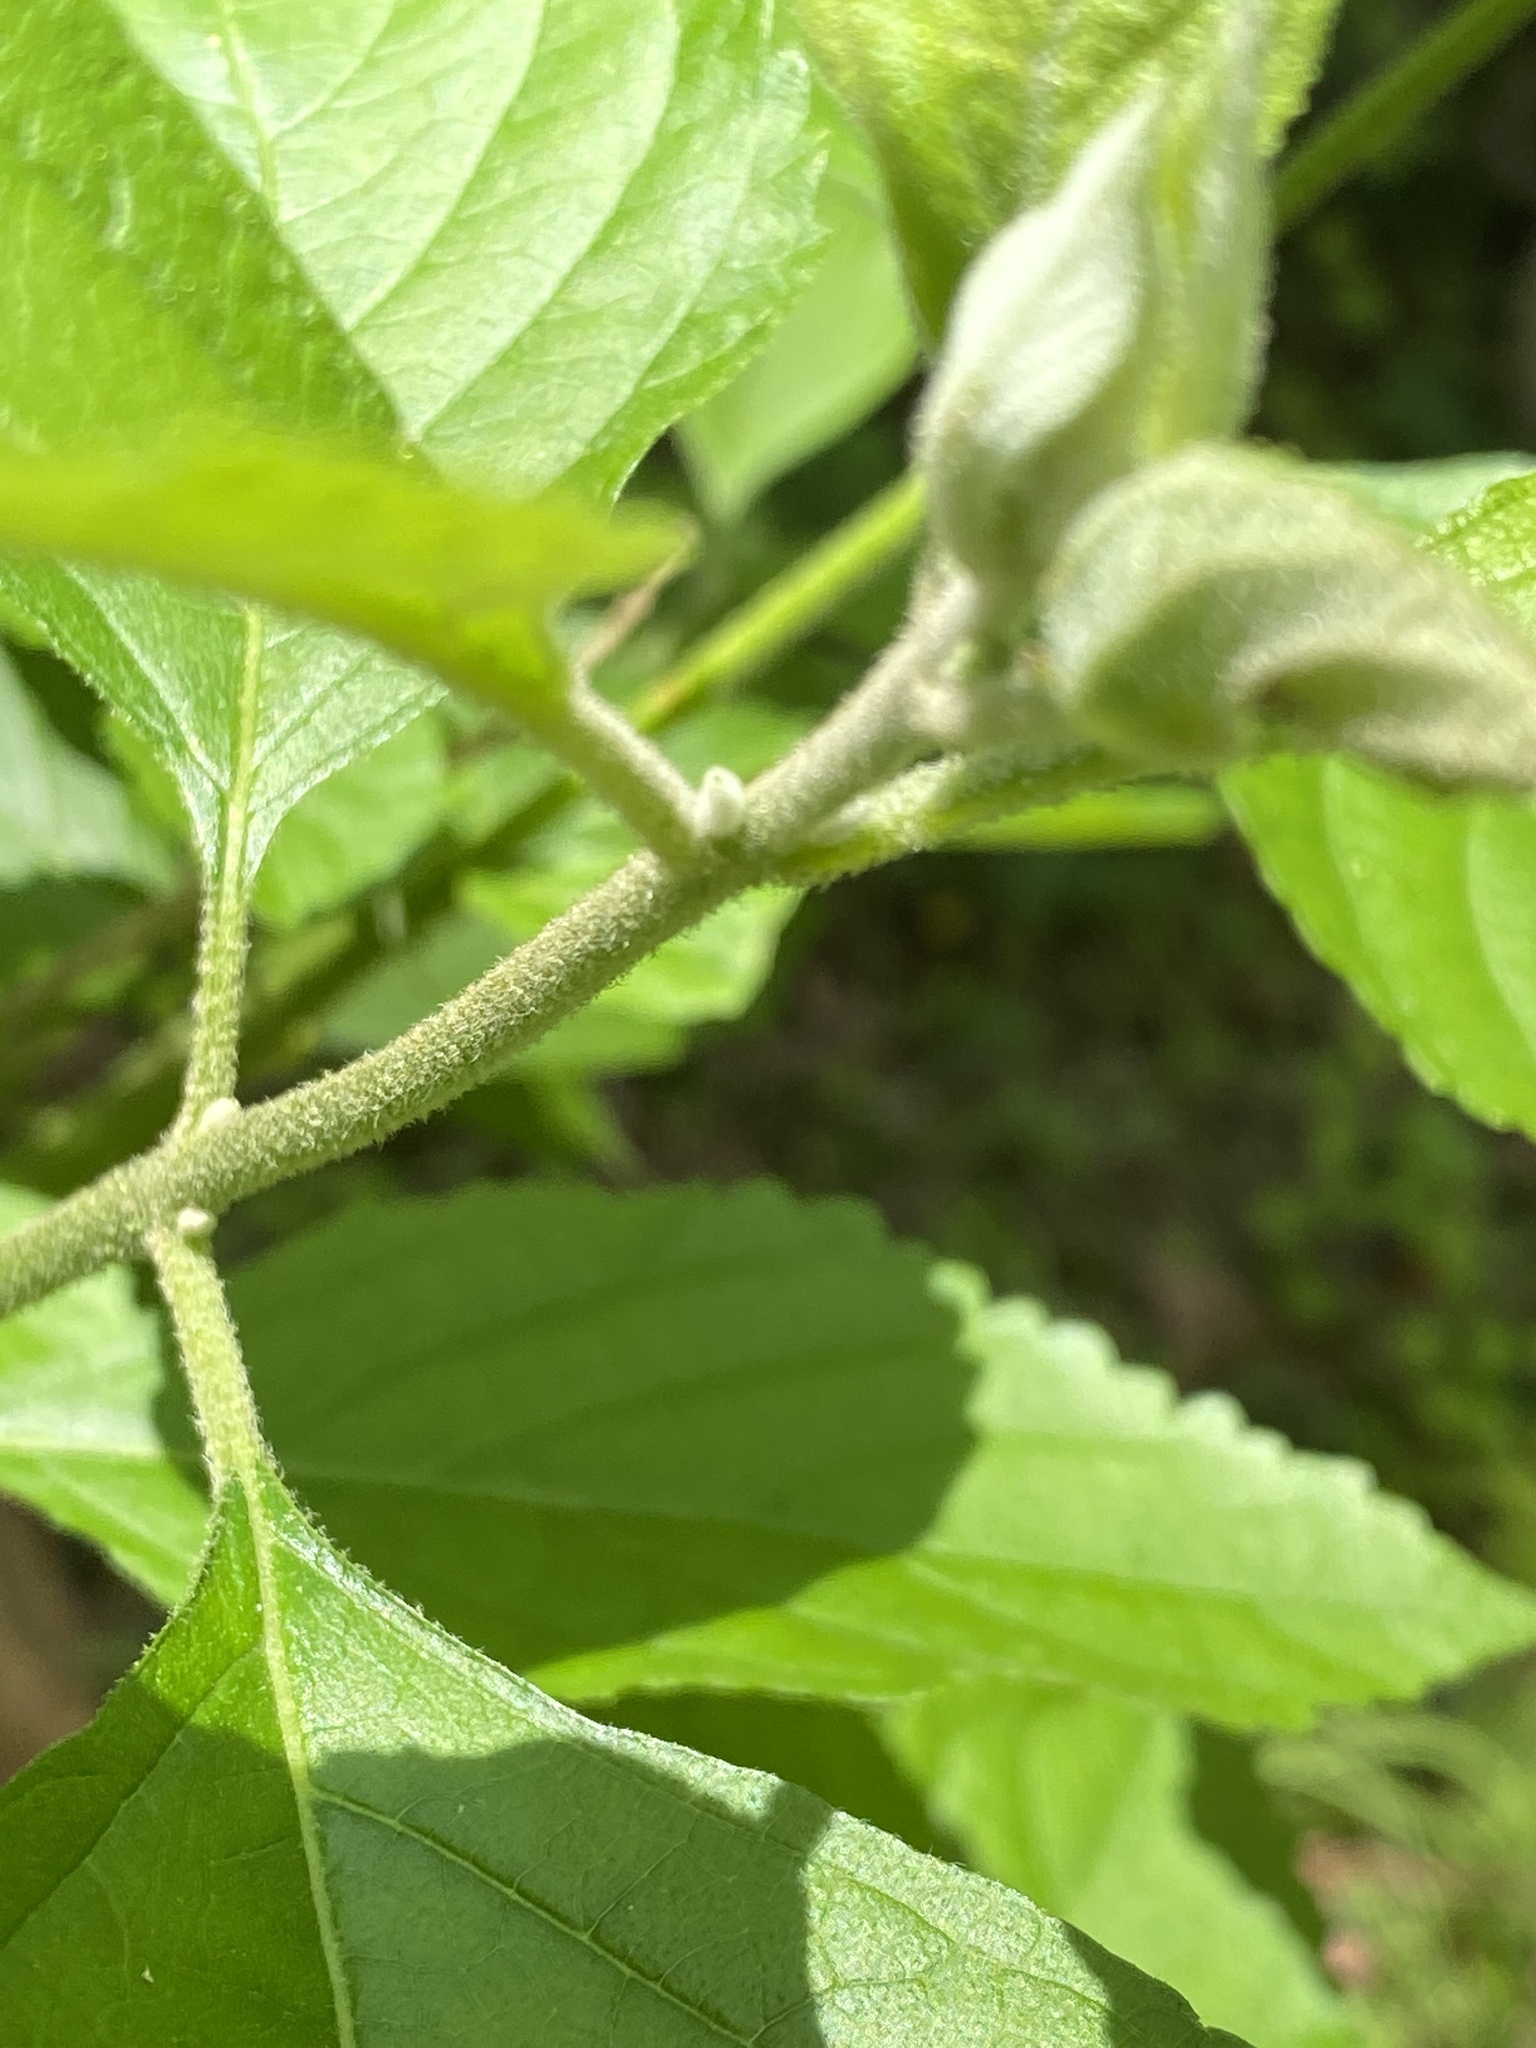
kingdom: Plantae
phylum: Tracheophyta
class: Magnoliopsida
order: Lamiales
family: Lamiaceae
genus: Callicarpa
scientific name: Callicarpa americana
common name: American beautyberry
